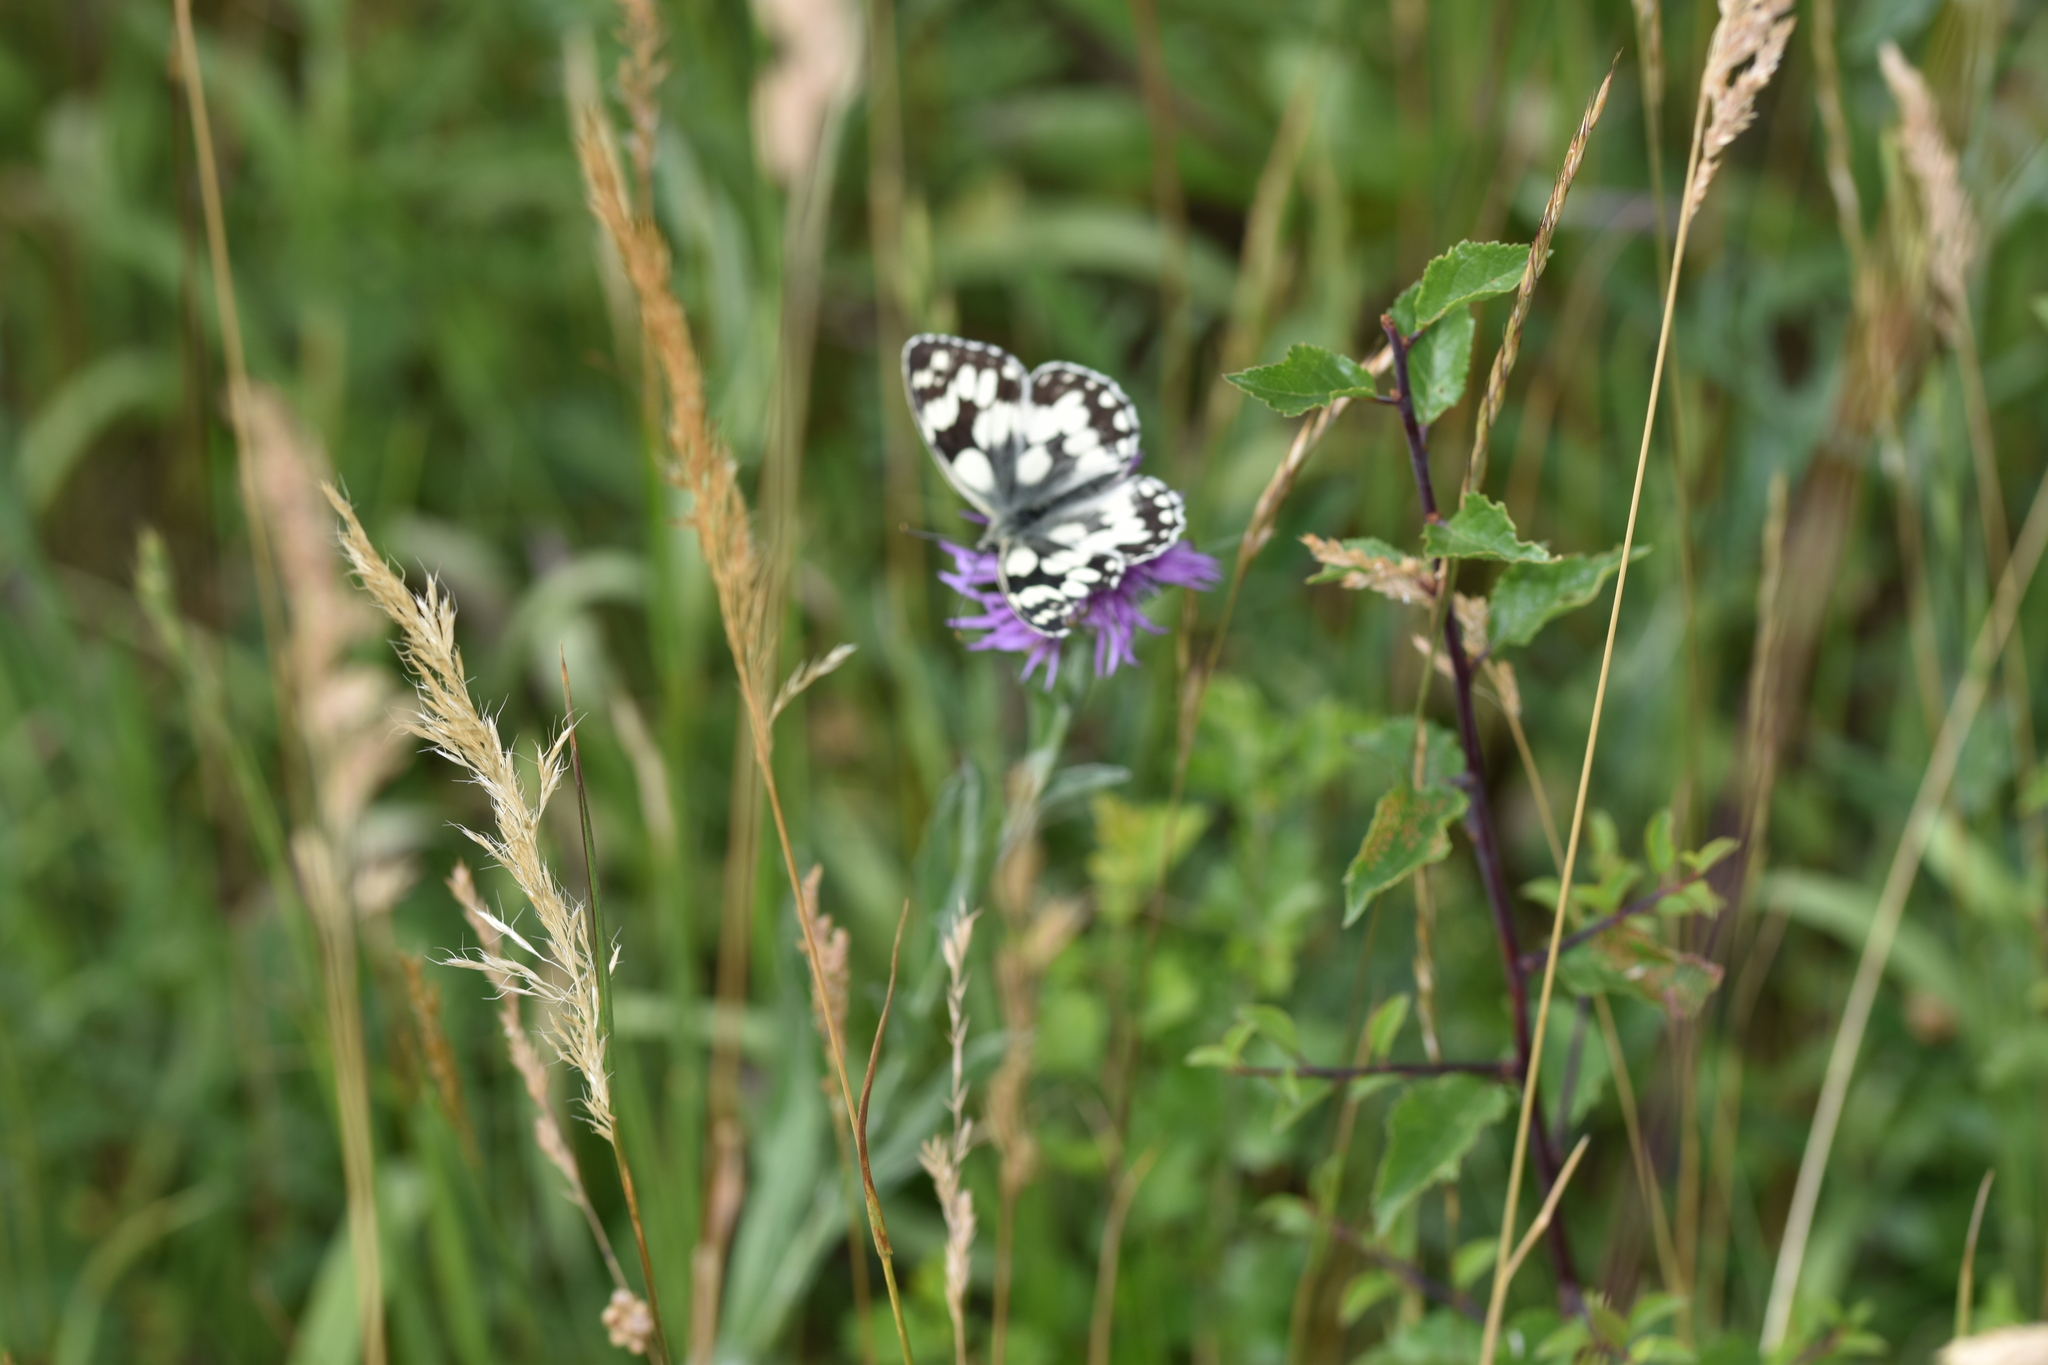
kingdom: Animalia
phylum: Arthropoda
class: Insecta
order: Lepidoptera
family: Nymphalidae
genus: Melanargia
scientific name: Melanargia galathea
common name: Marbled white
